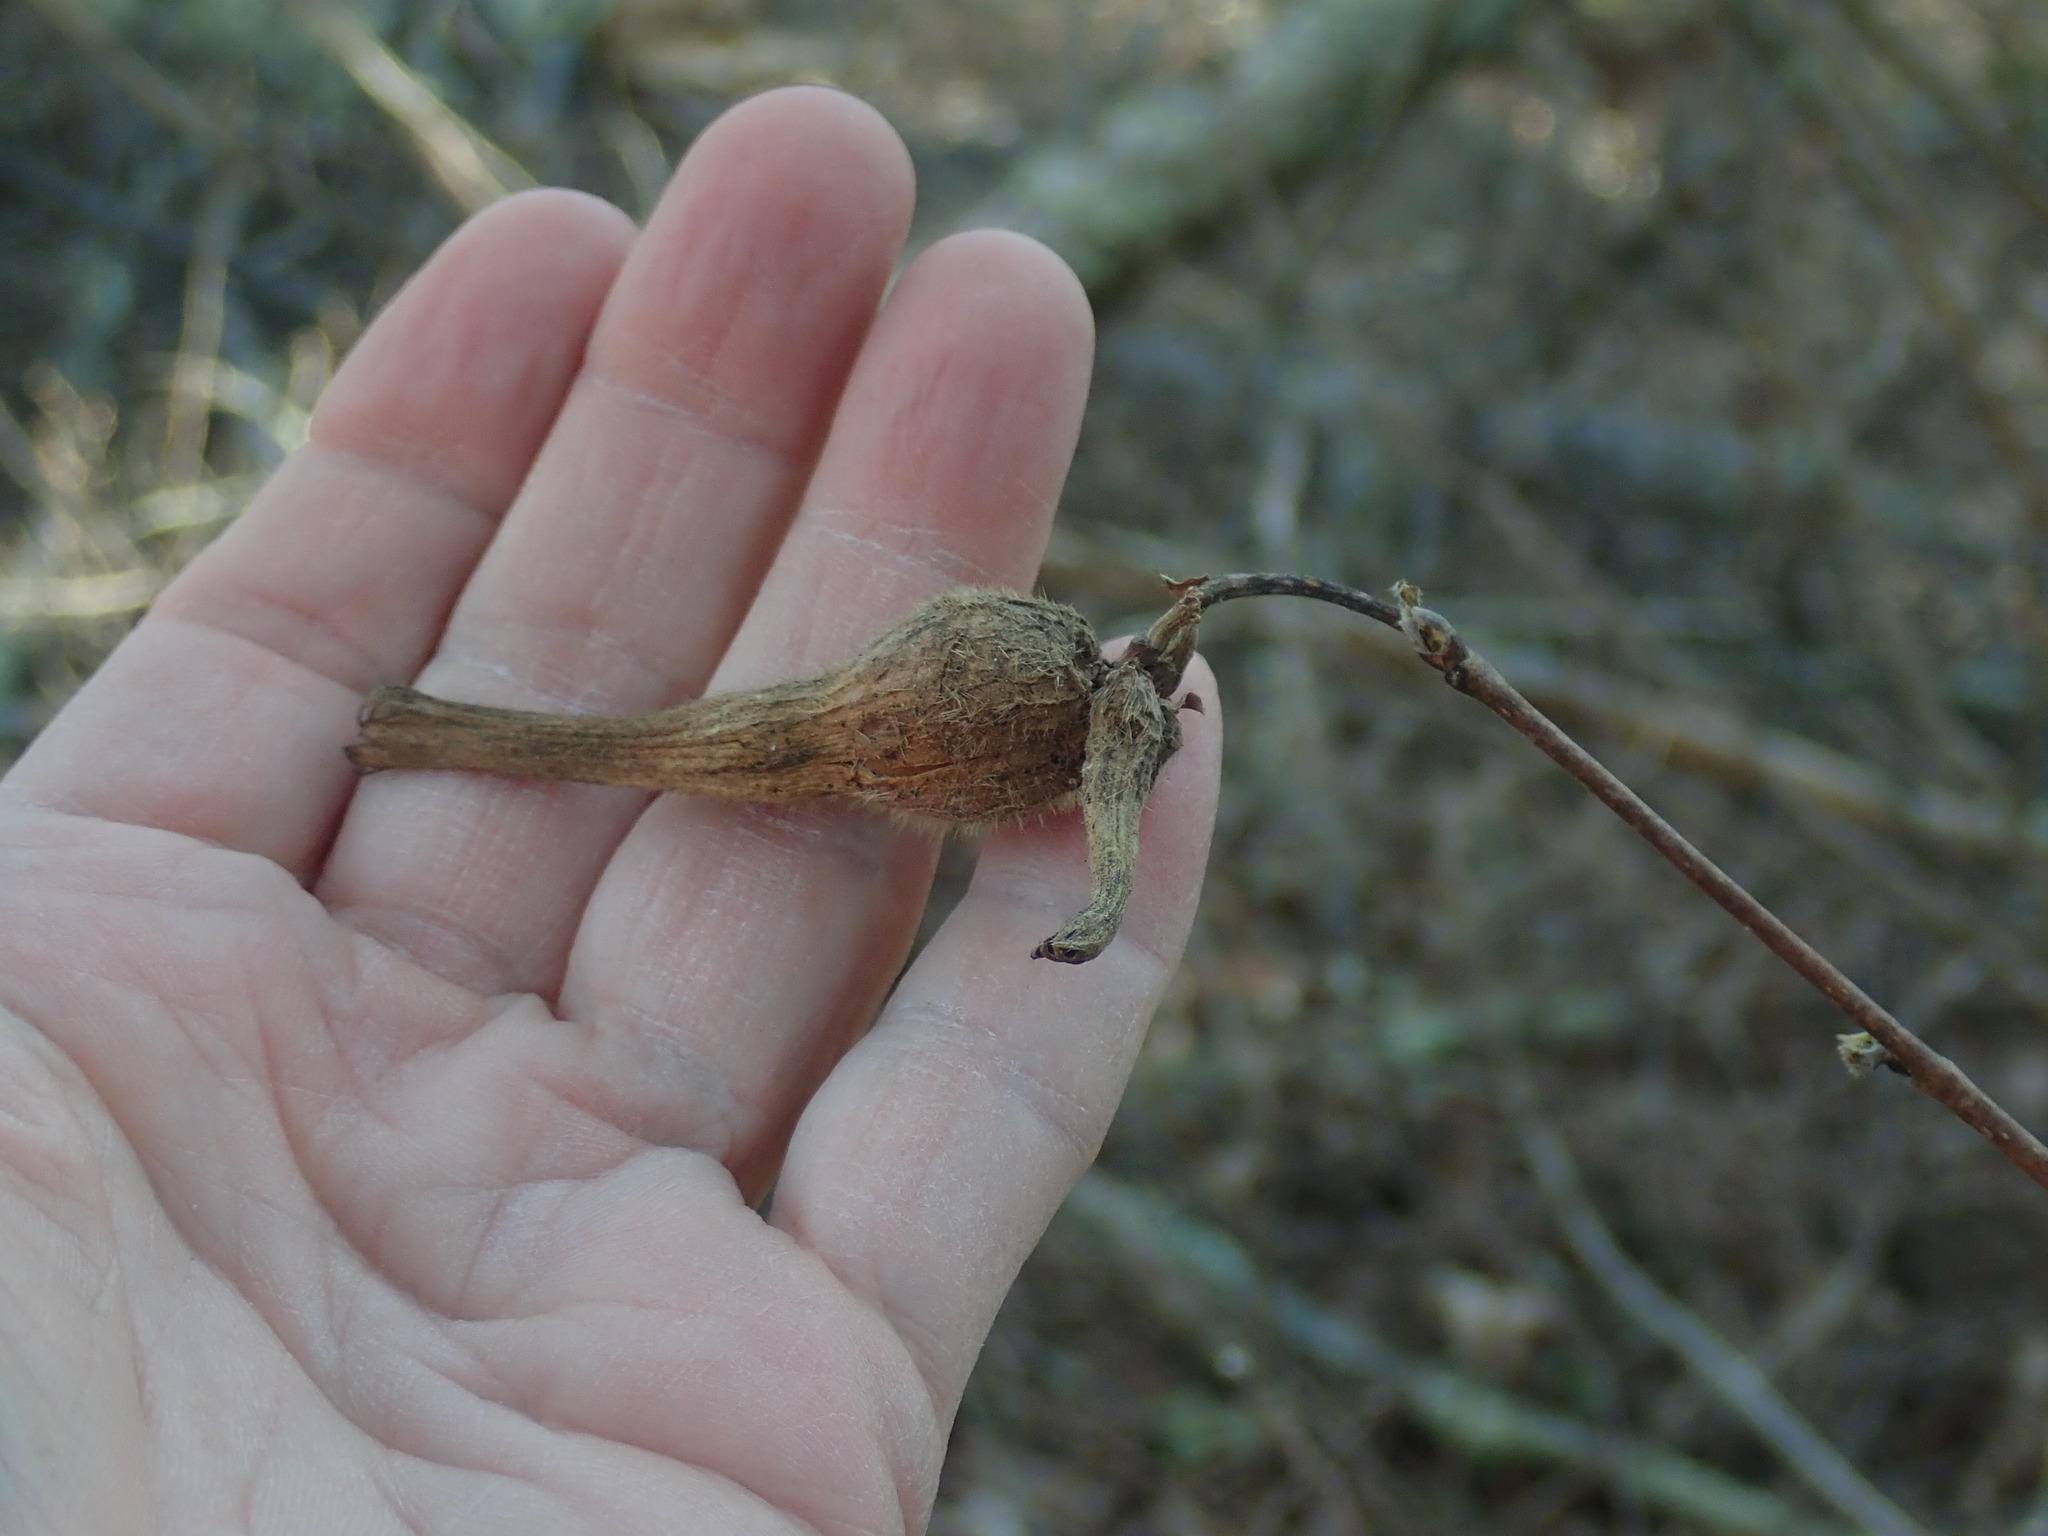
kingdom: Plantae
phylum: Tracheophyta
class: Magnoliopsida
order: Fagales
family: Betulaceae
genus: Corylus
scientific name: Corylus cornuta
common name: Beaked hazel
